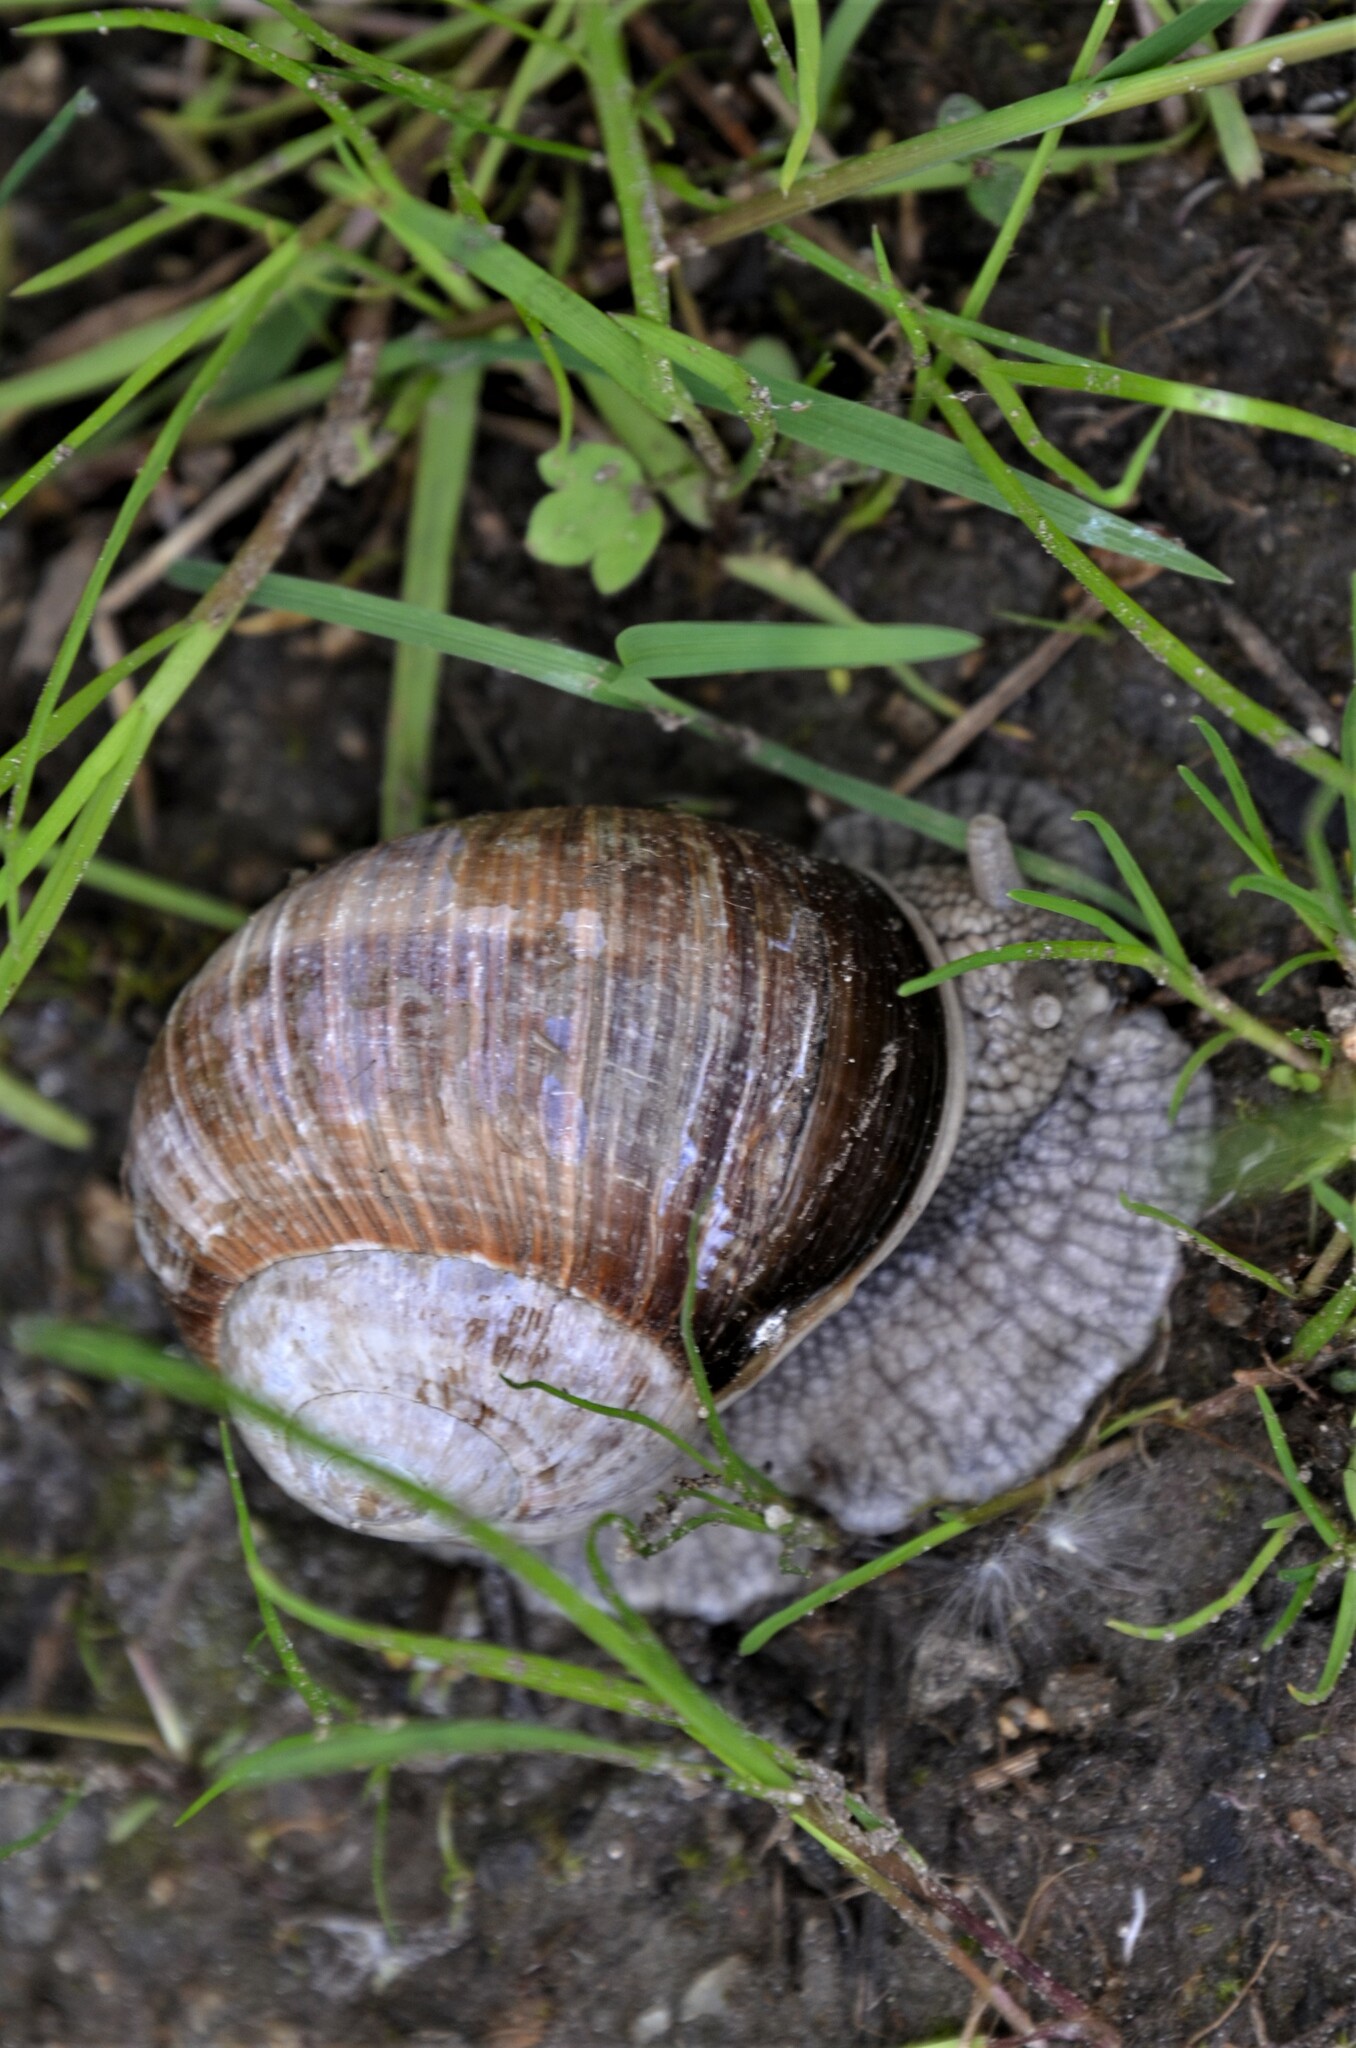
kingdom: Animalia
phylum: Mollusca
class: Gastropoda
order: Stylommatophora
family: Helicidae
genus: Helix
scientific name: Helix pomatia
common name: Roman snail
